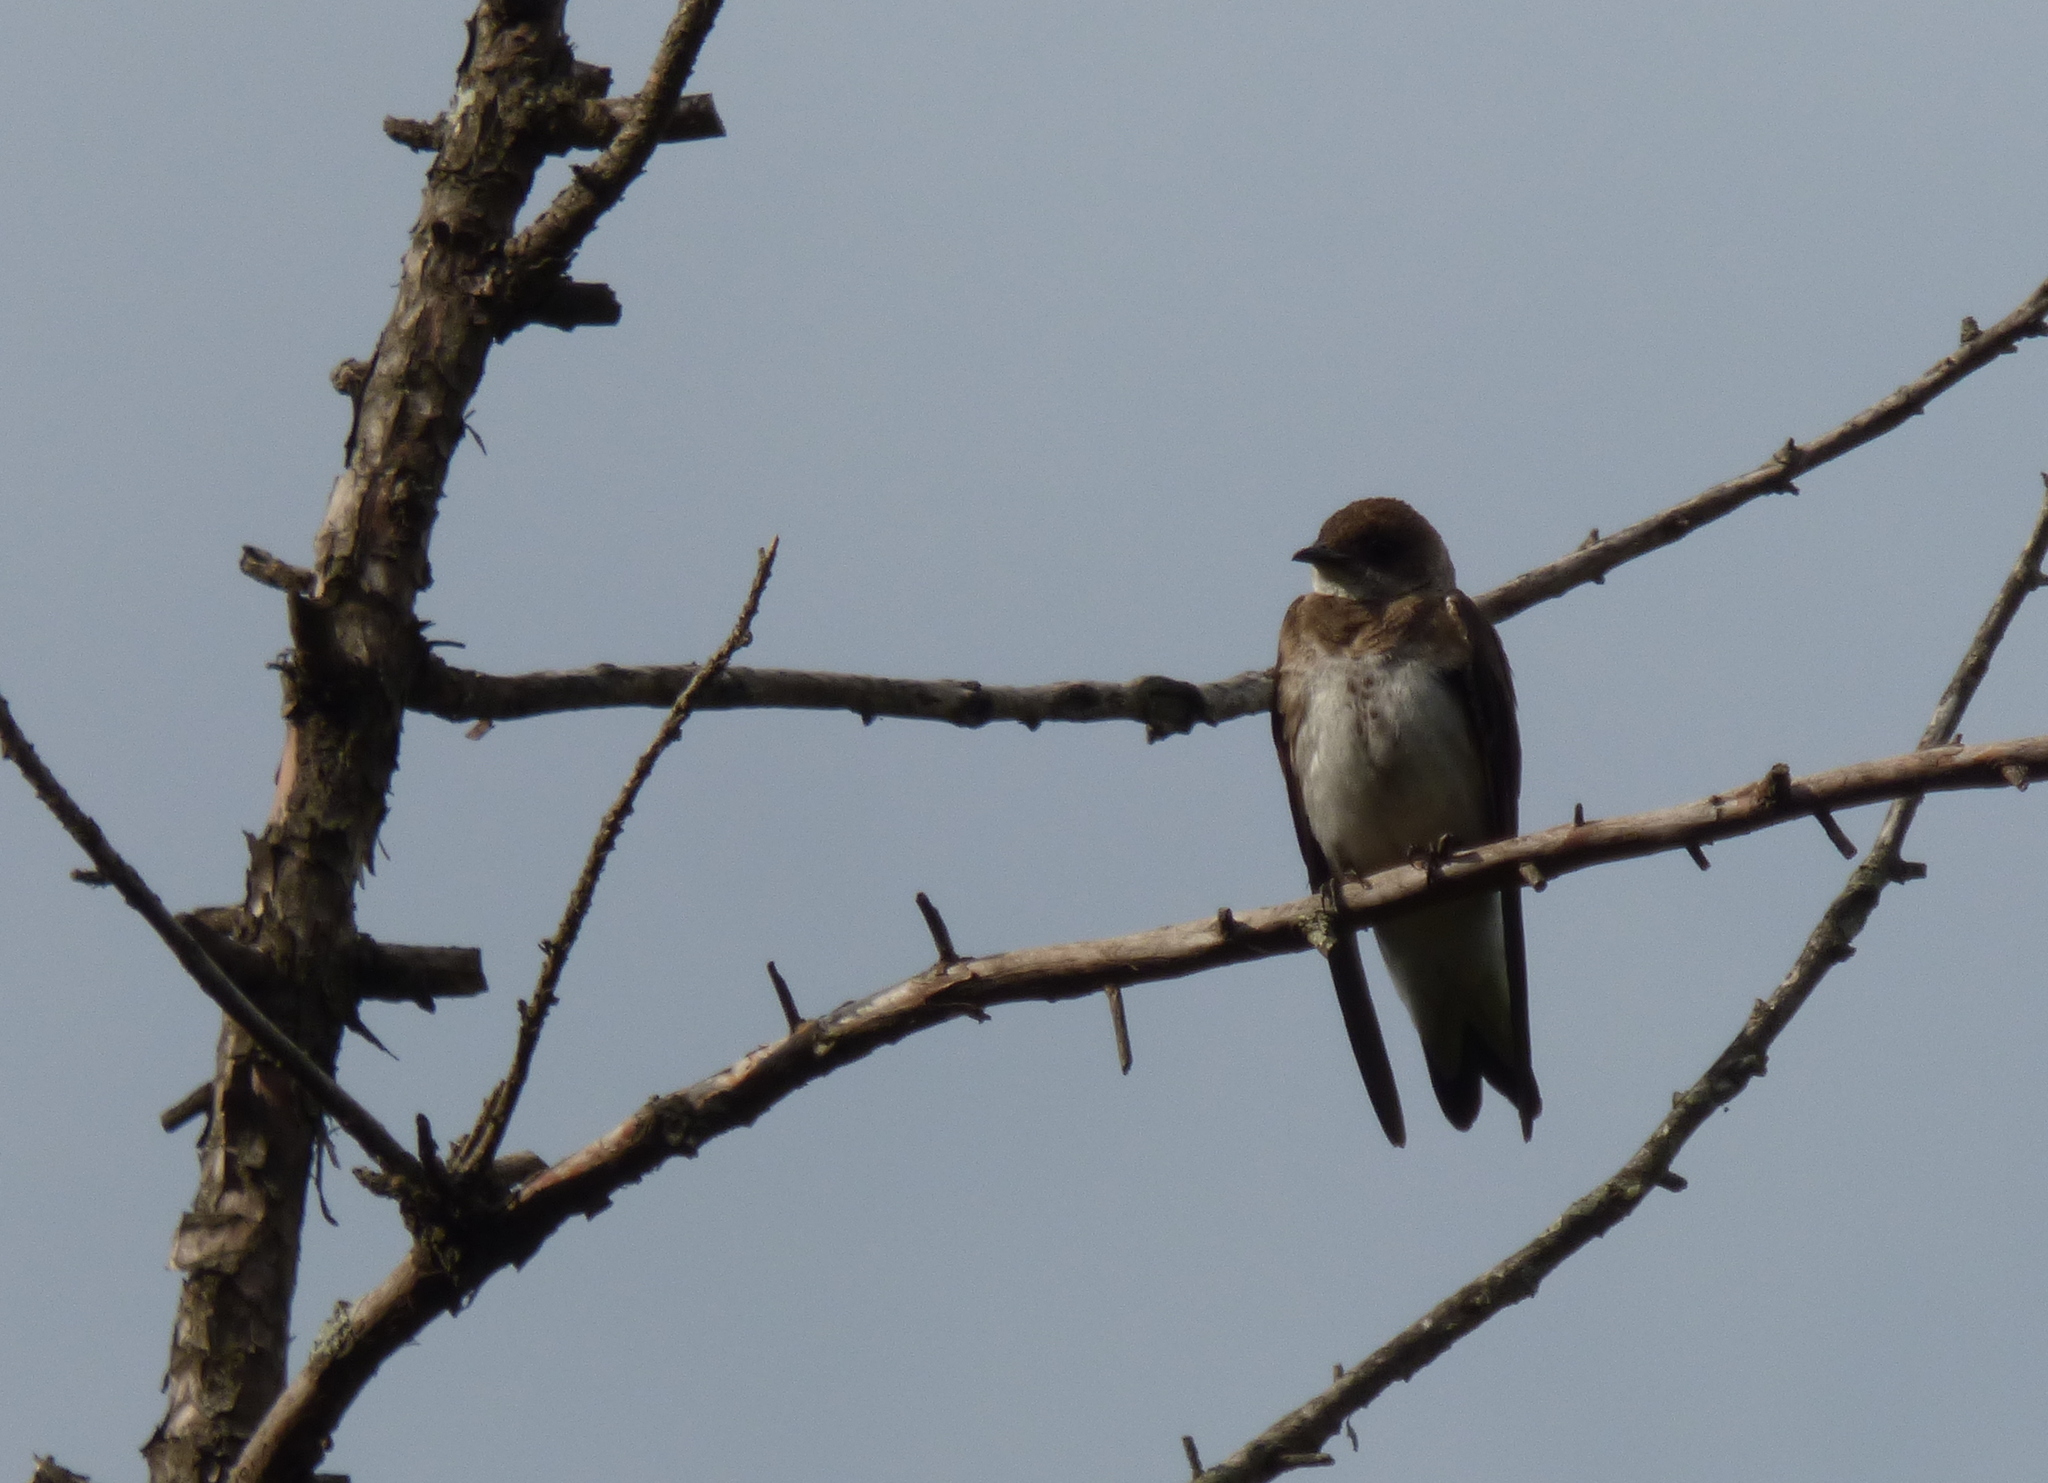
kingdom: Animalia
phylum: Chordata
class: Aves
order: Passeriformes
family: Hirundinidae
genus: Progne
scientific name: Progne tapera
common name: Brown-chested martin
